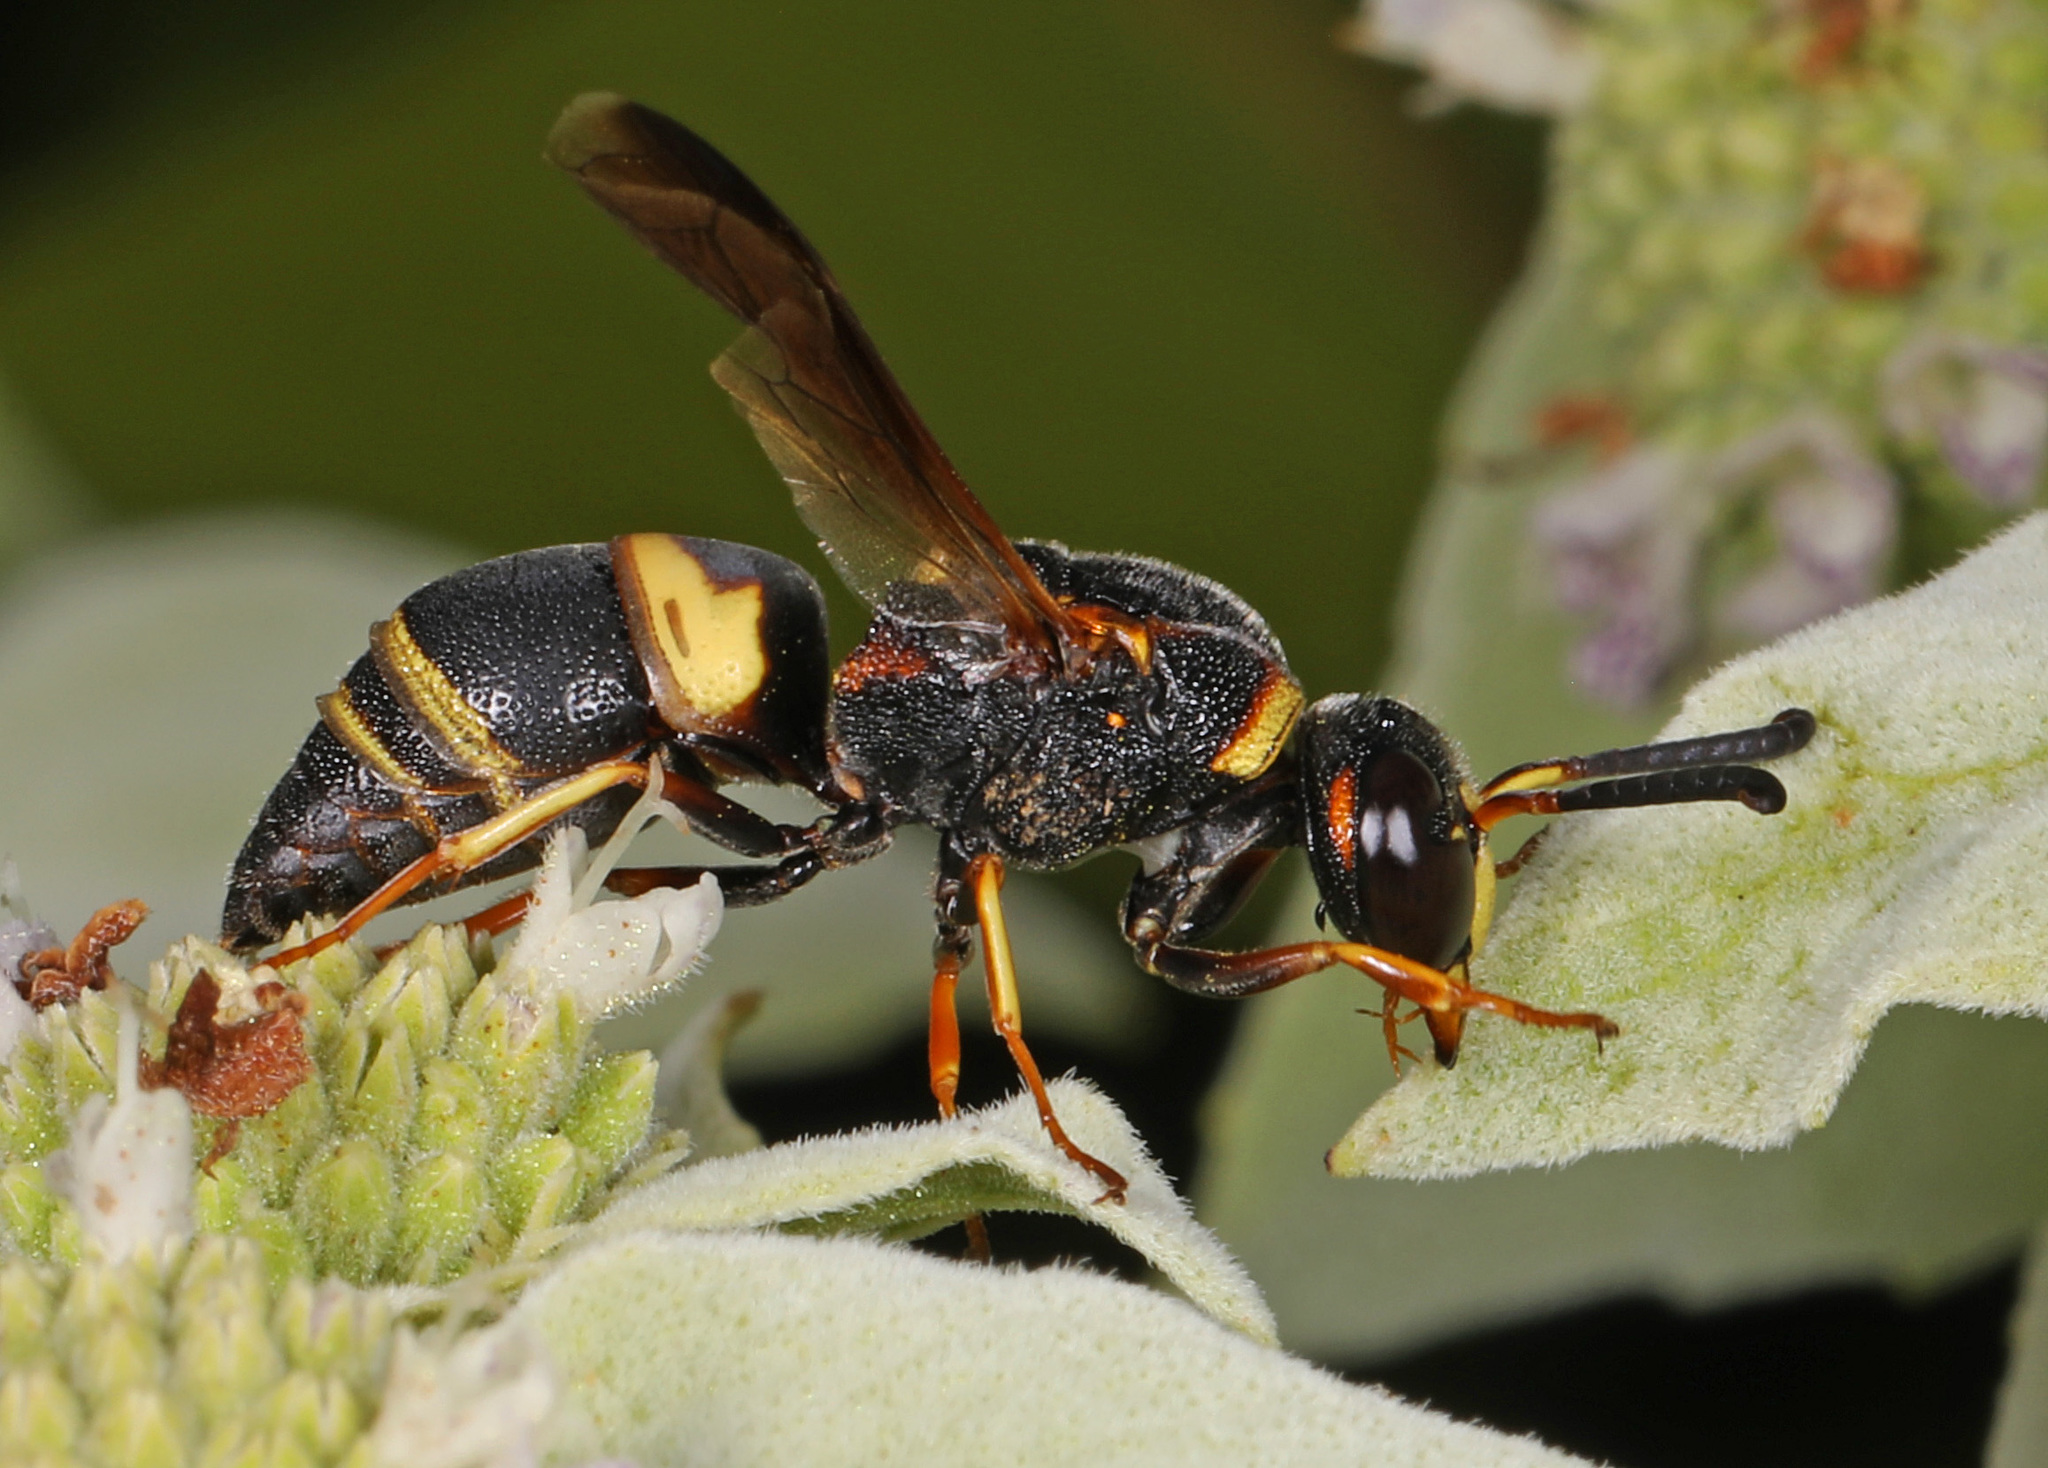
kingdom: Animalia
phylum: Arthropoda
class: Insecta
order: Hymenoptera
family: Eumenidae
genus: Euodynerus
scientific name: Euodynerus hidalgo
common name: Wasp
